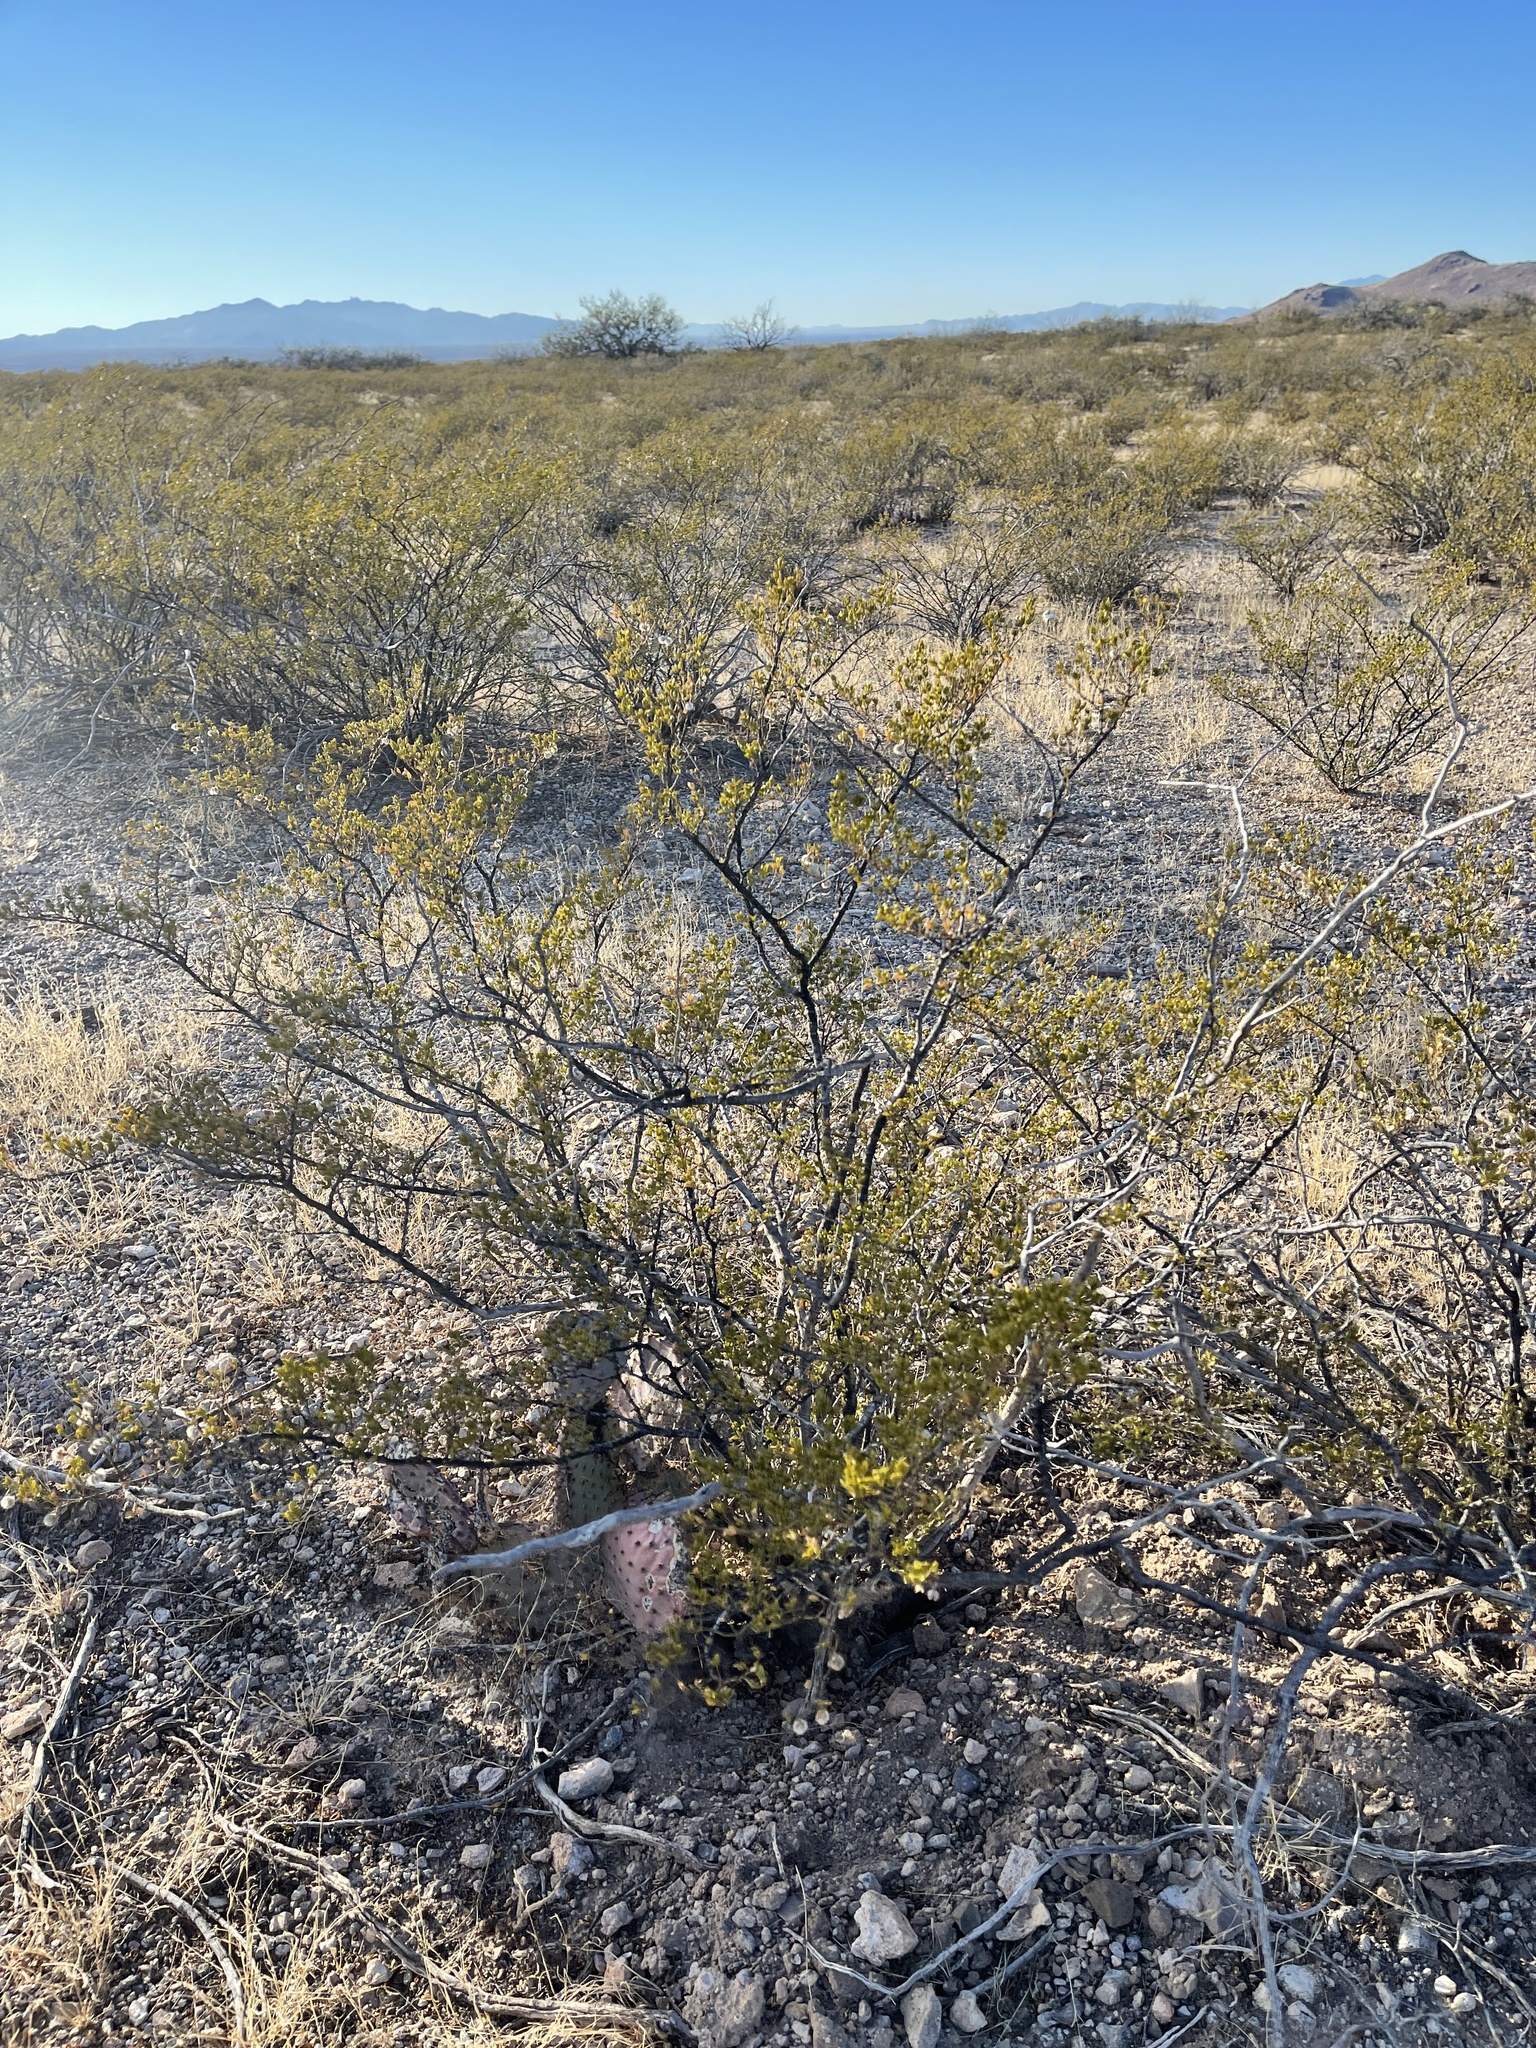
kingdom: Plantae
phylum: Tracheophyta
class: Magnoliopsida
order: Zygophyllales
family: Zygophyllaceae
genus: Larrea
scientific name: Larrea tridentata
